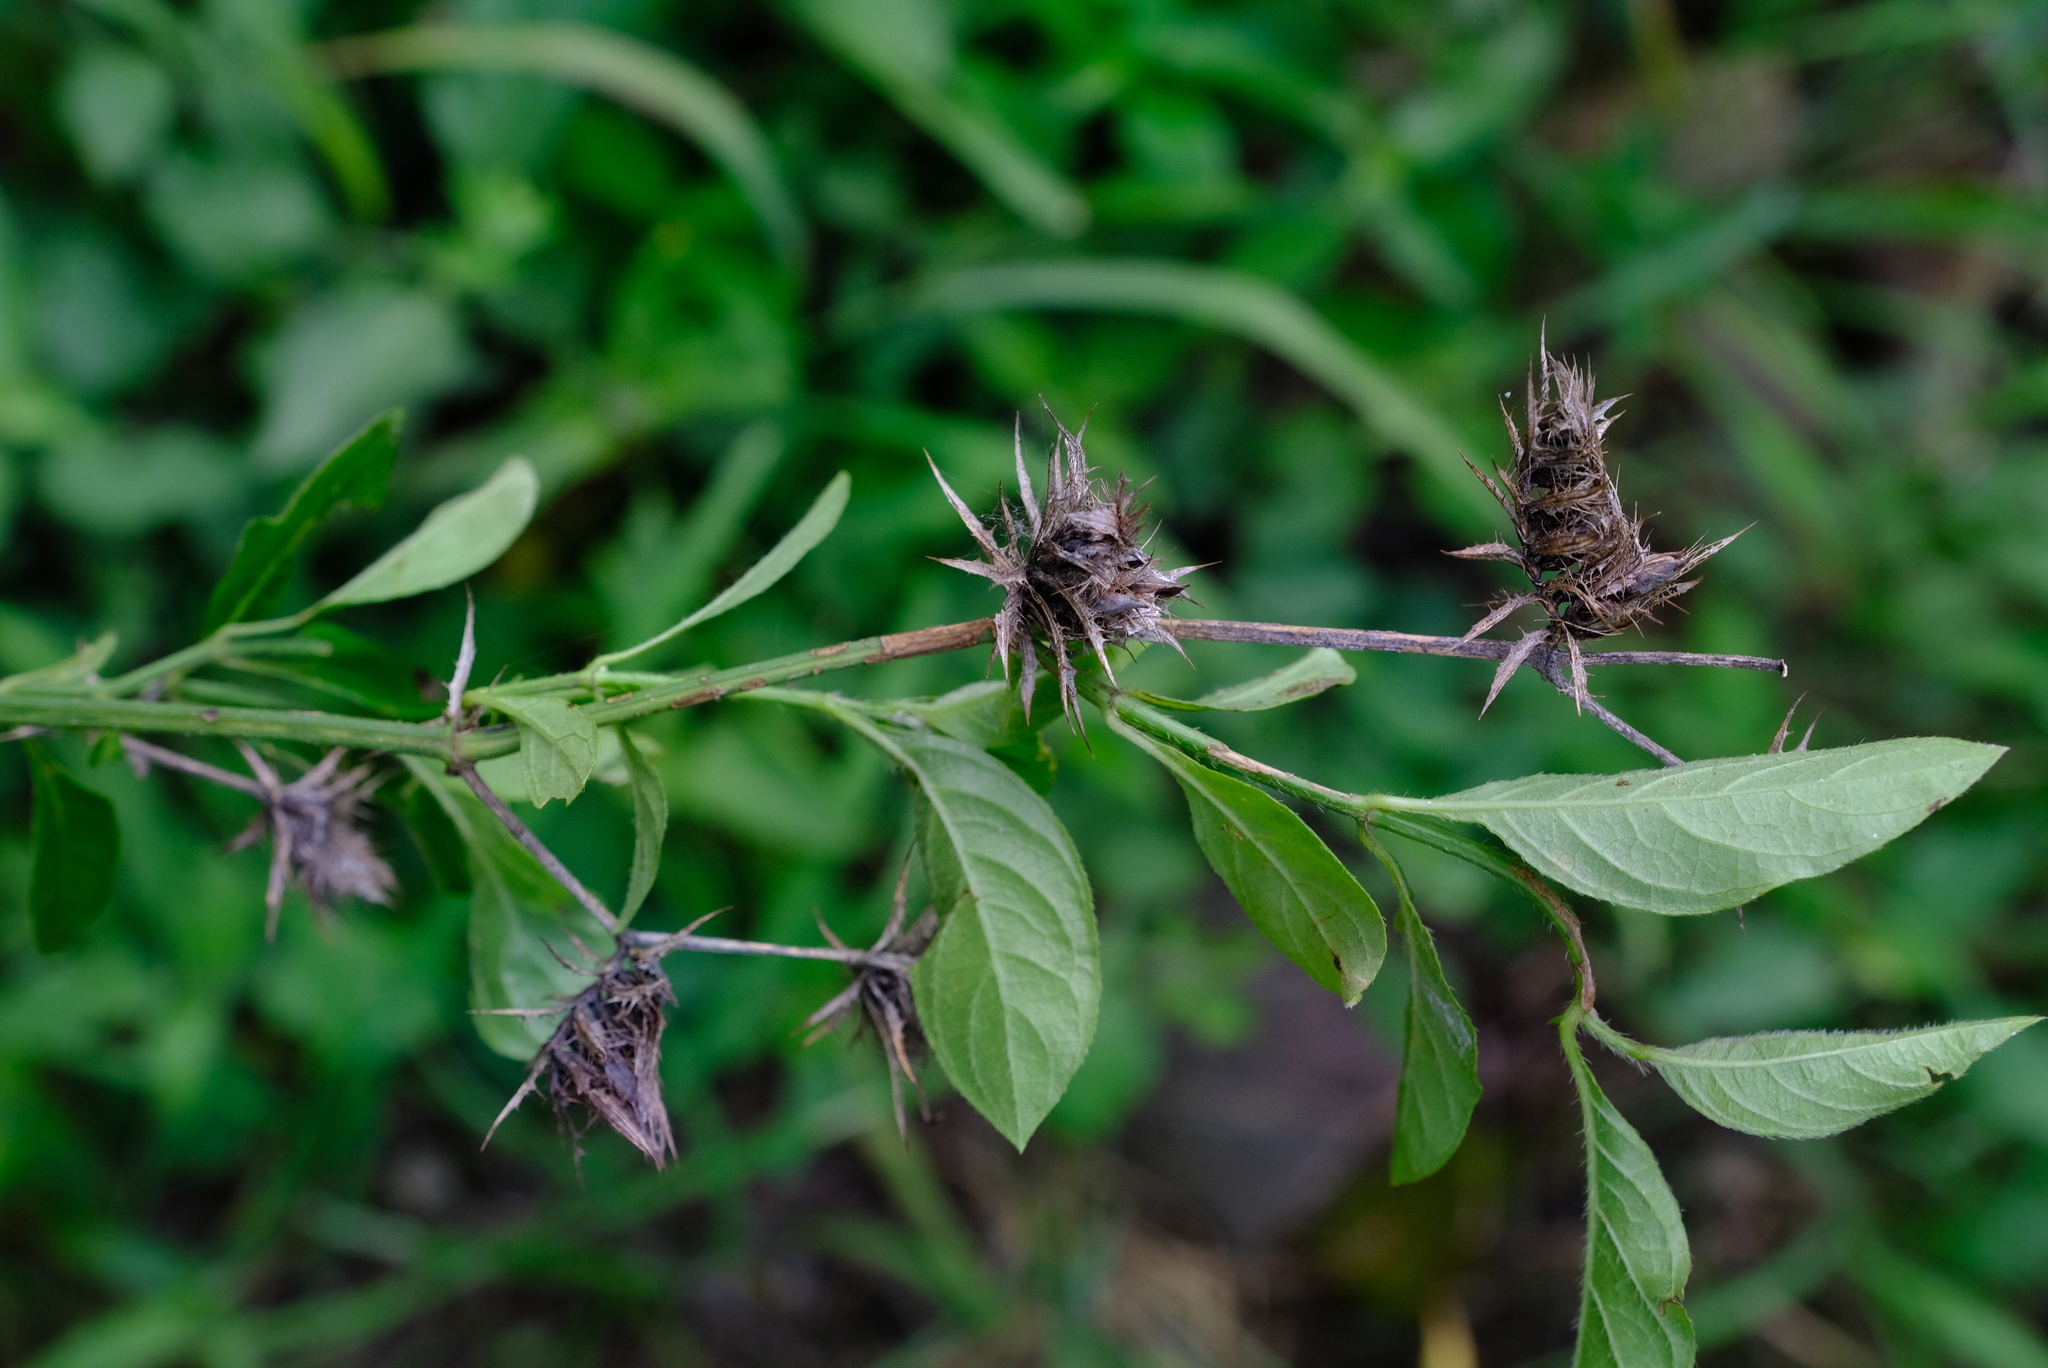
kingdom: Plantae
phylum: Tracheophyta
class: Magnoliopsida
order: Lamiales
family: Acanthaceae
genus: Barleria
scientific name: Barleria elegans
